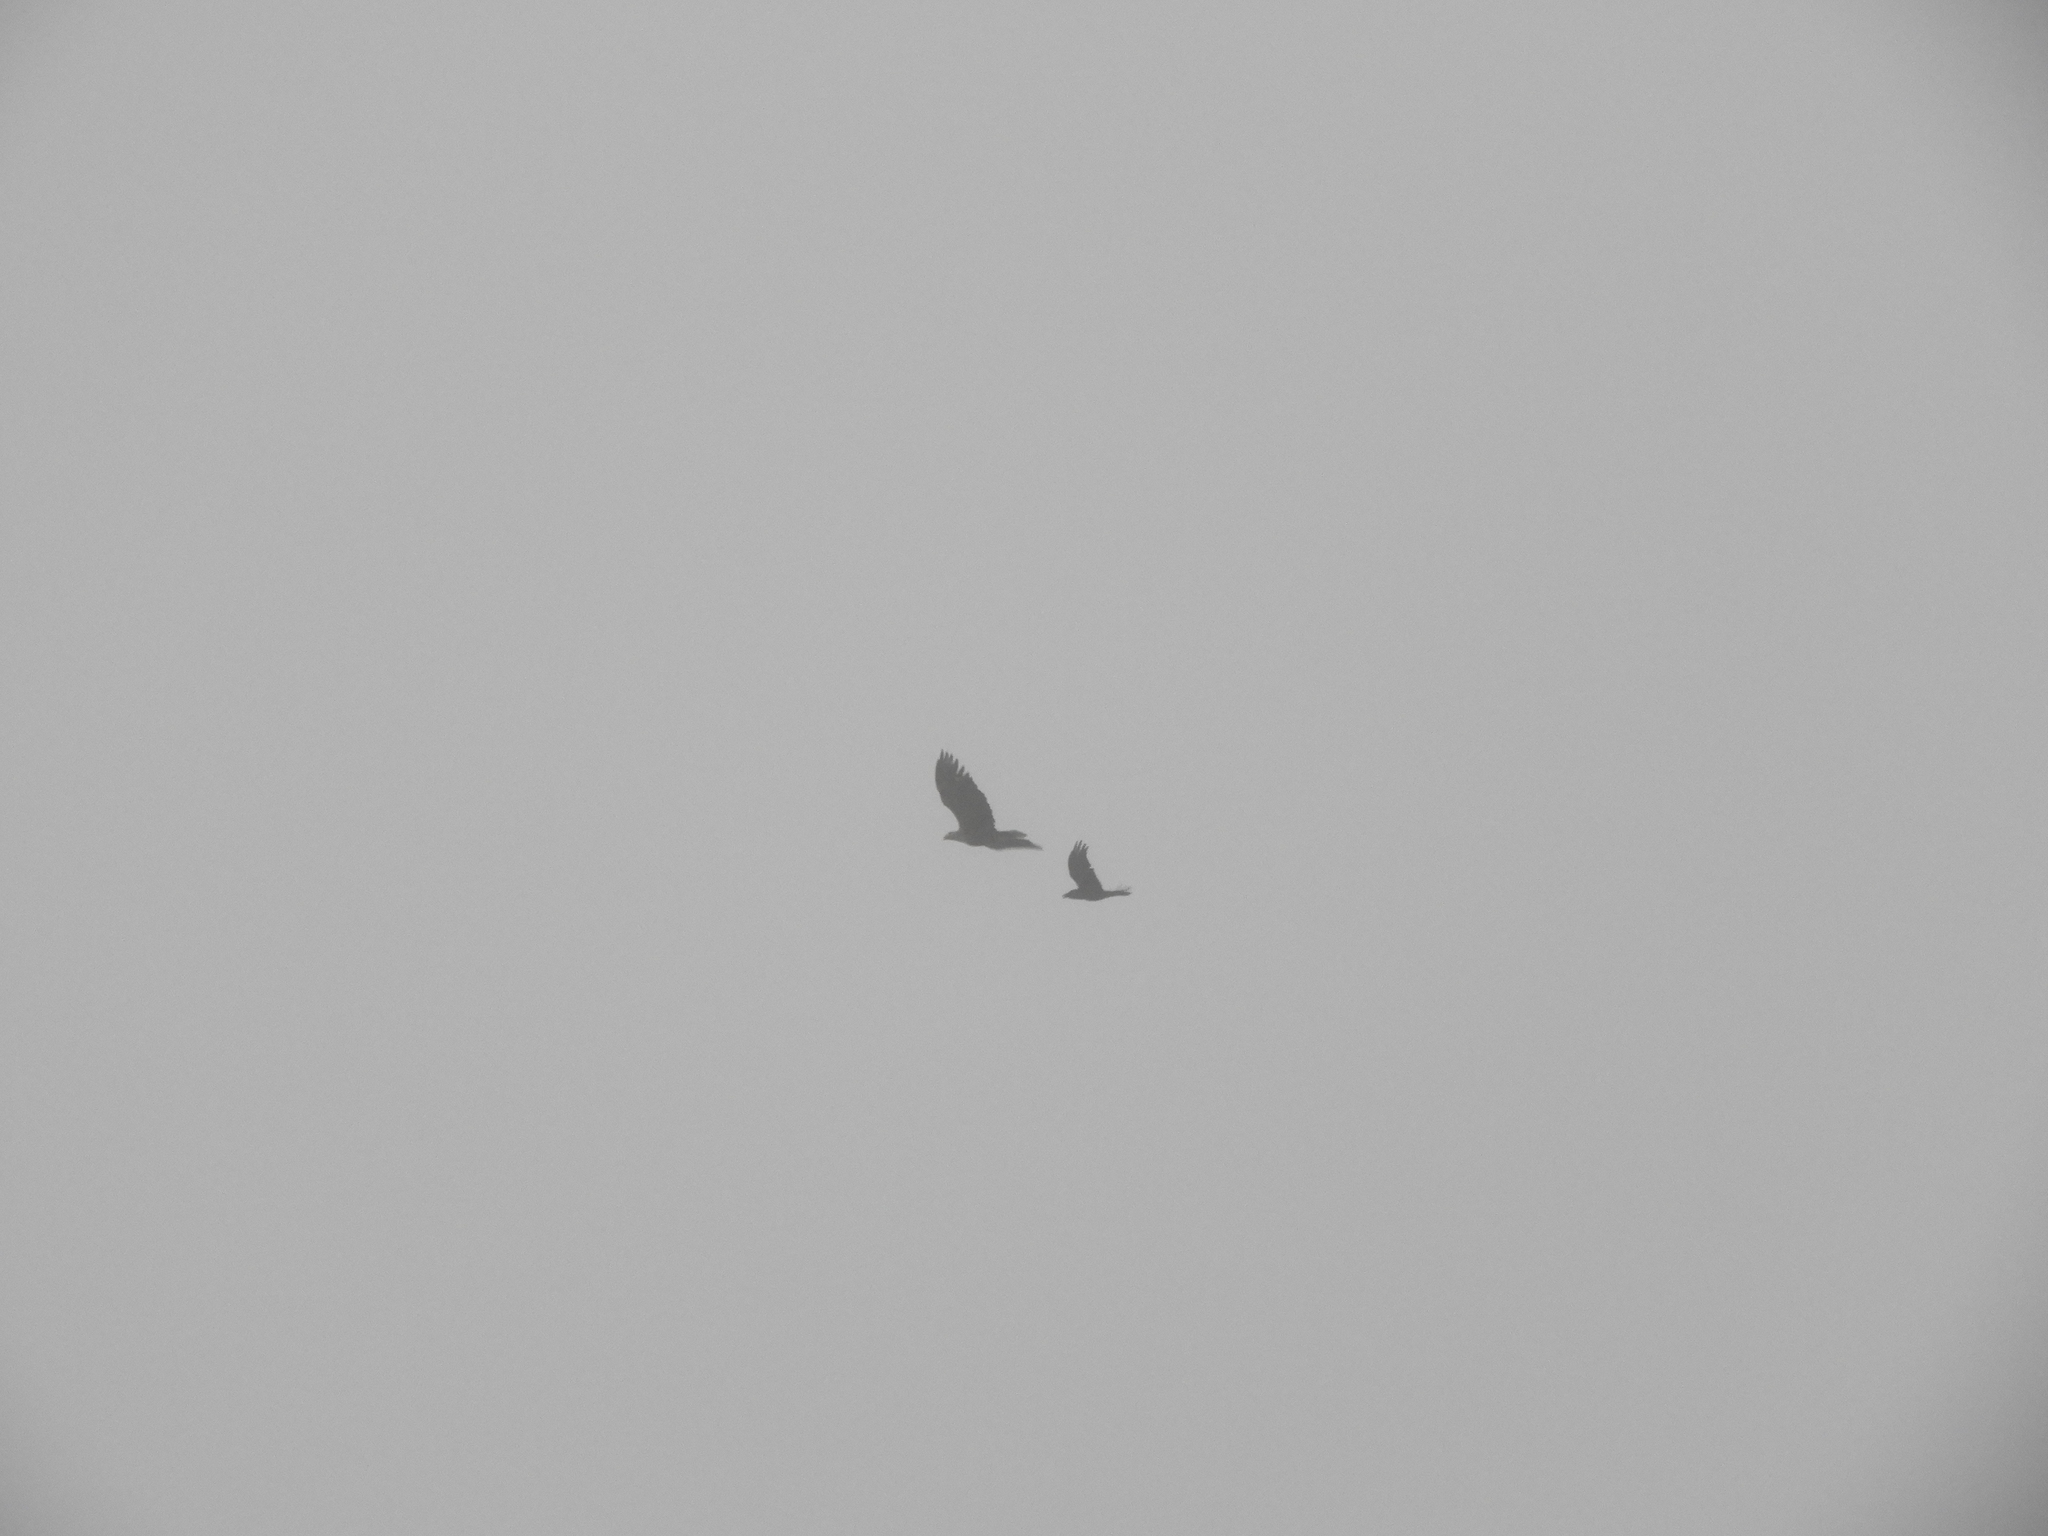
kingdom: Animalia
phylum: Chordata
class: Aves
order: Accipitriformes
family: Accipitridae
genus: Haliaeetus
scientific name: Haliaeetus albicilla
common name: White-tailed eagle
